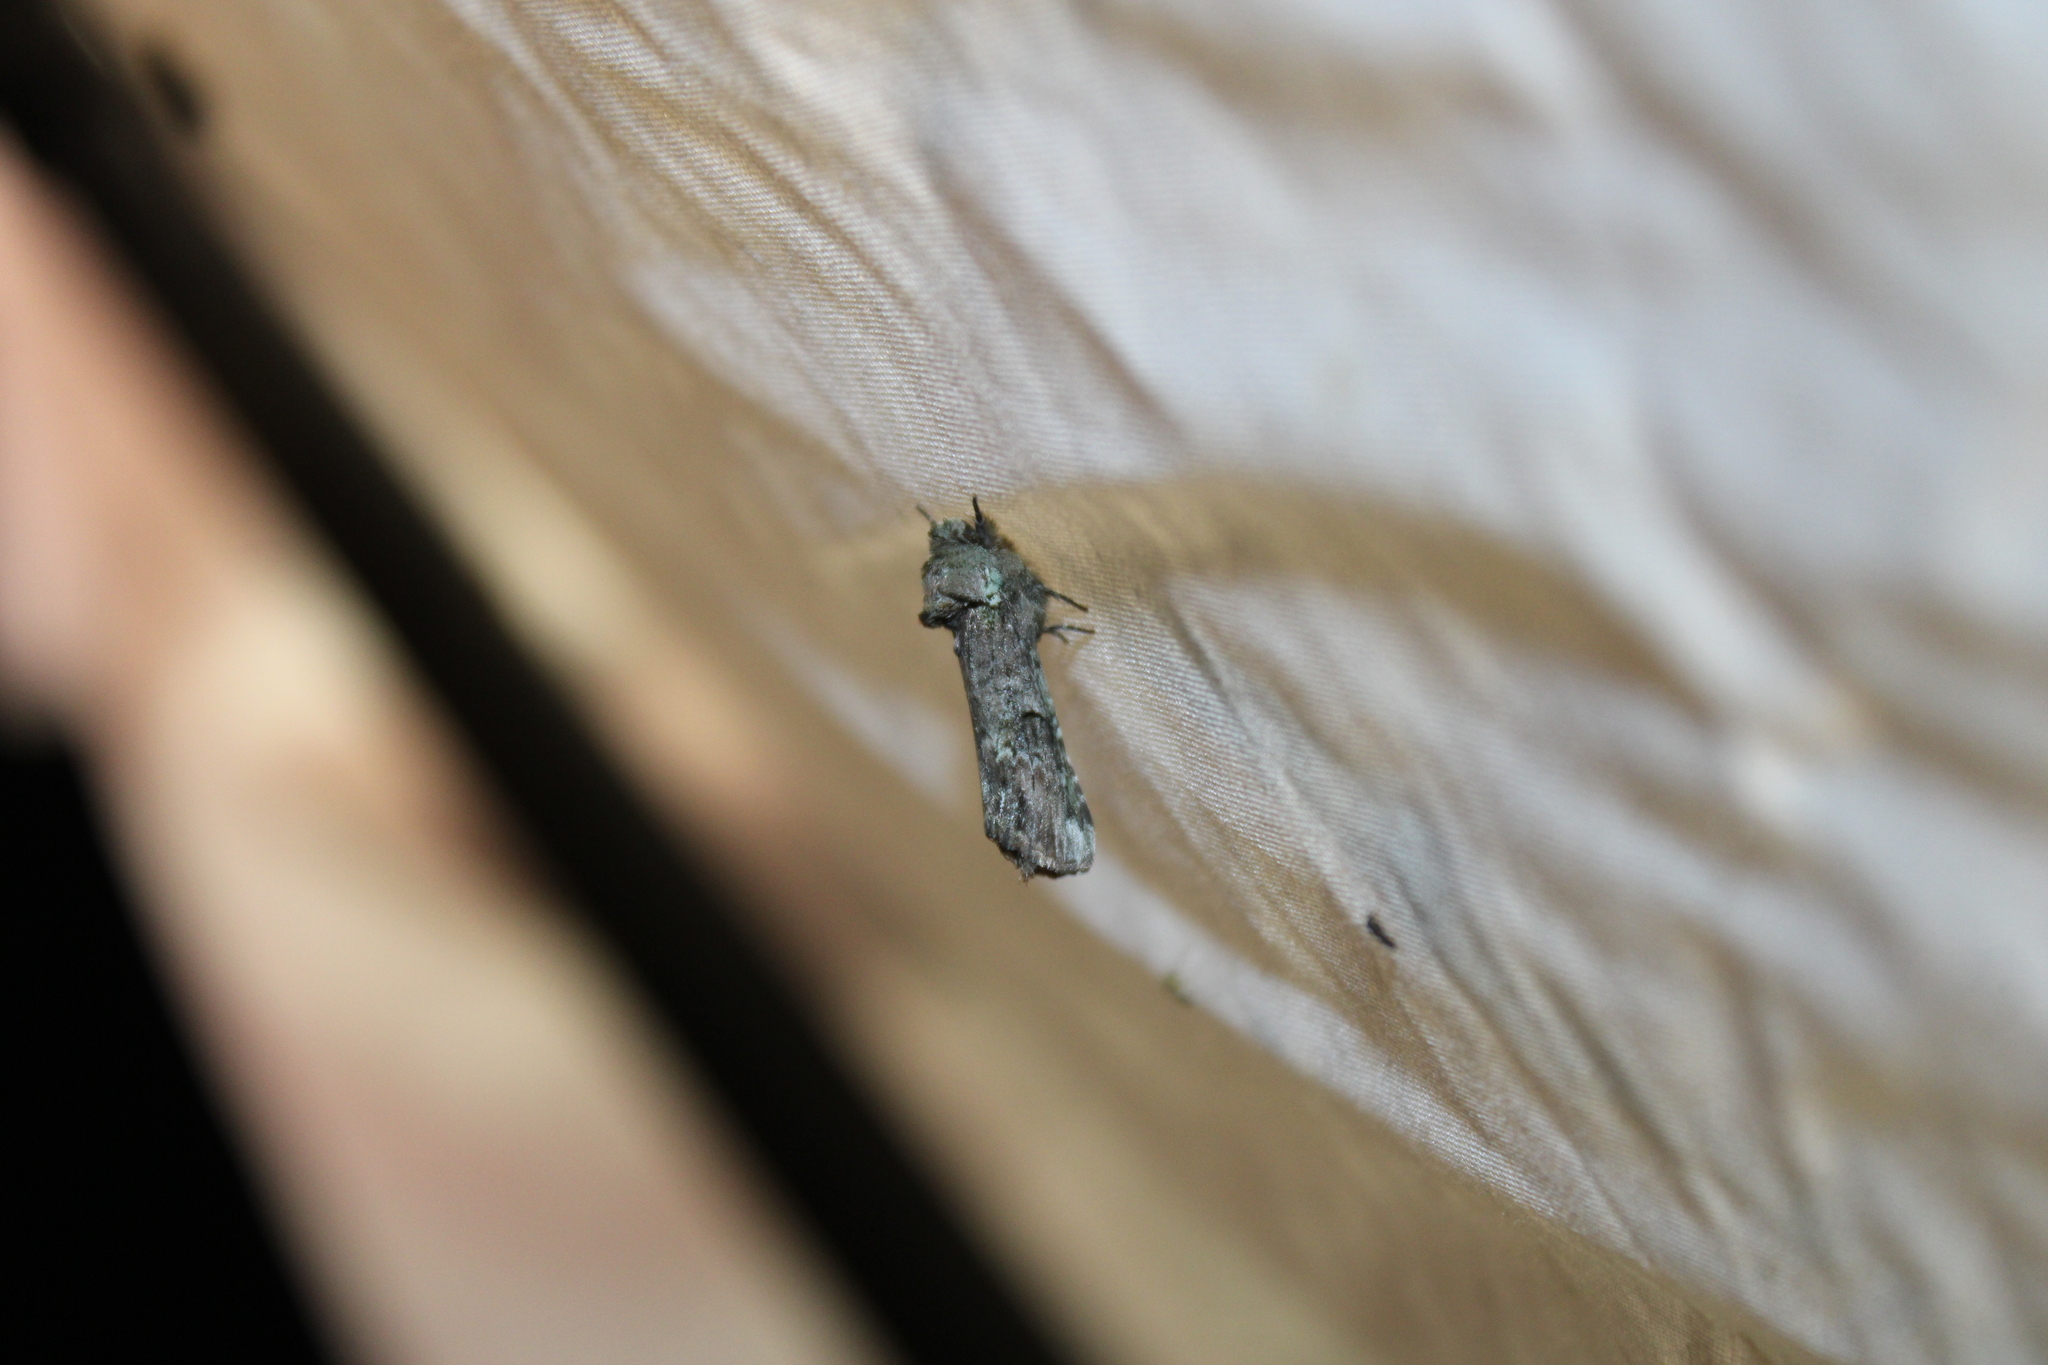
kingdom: Animalia
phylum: Arthropoda
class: Insecta
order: Lepidoptera
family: Notodontidae
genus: Schizura
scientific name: Schizura
